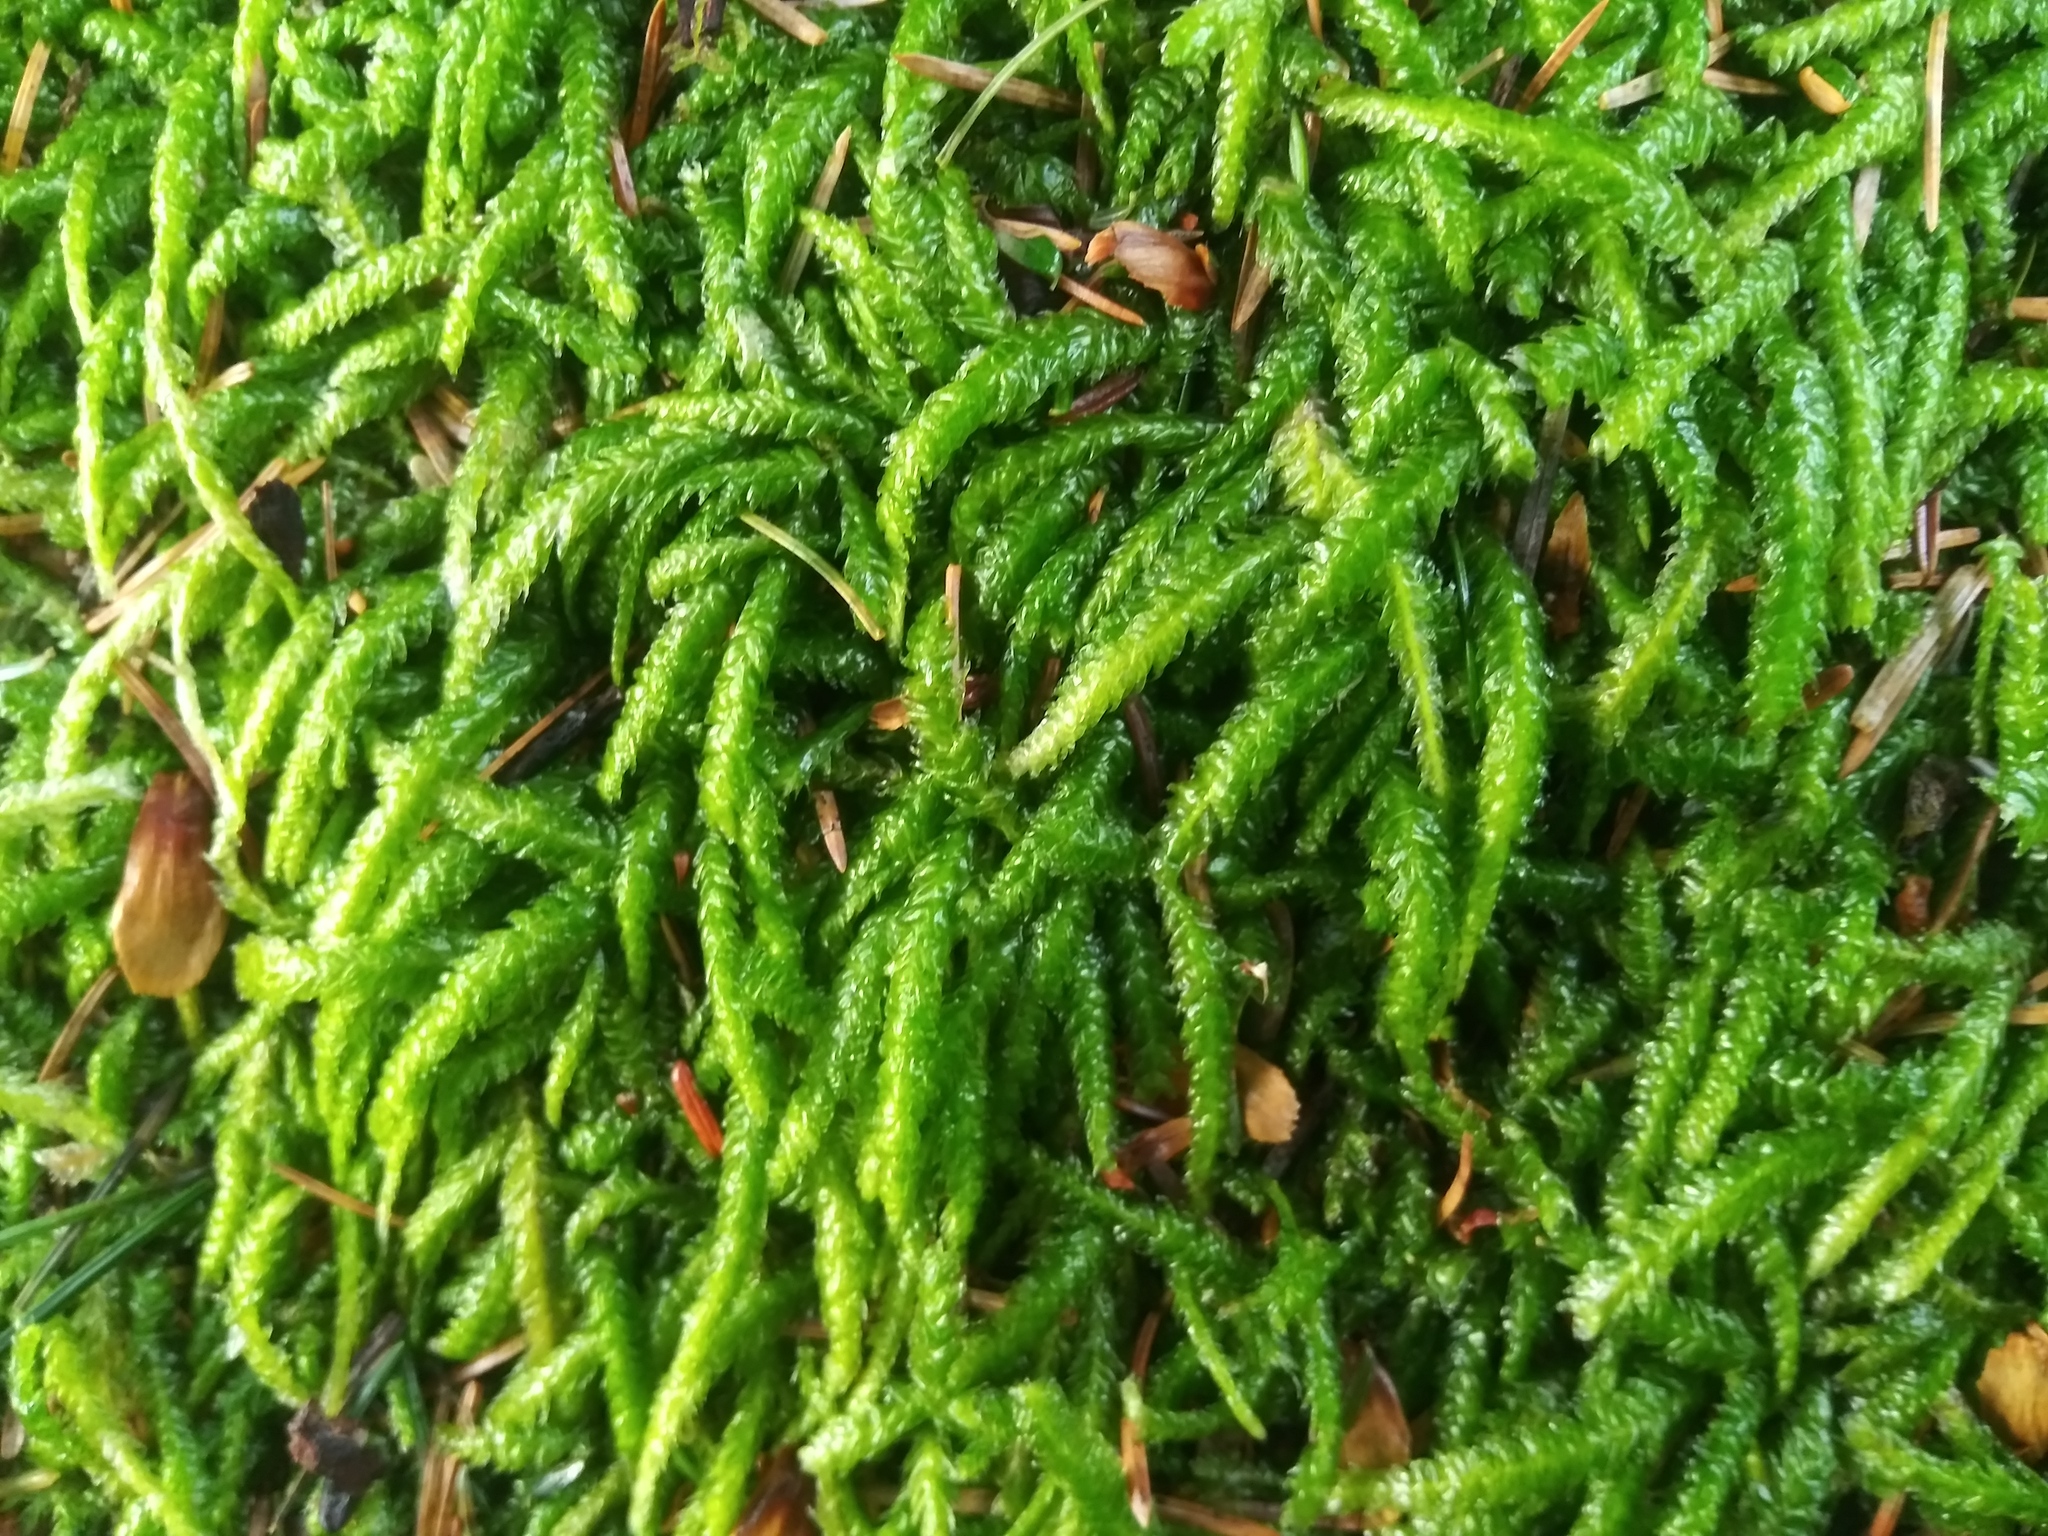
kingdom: Plantae
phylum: Bryophyta
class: Bryopsida
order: Hypnales
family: Plagiotheciaceae
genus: Plagiothecium
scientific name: Plagiothecium undulatum
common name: Waved silk-moss
